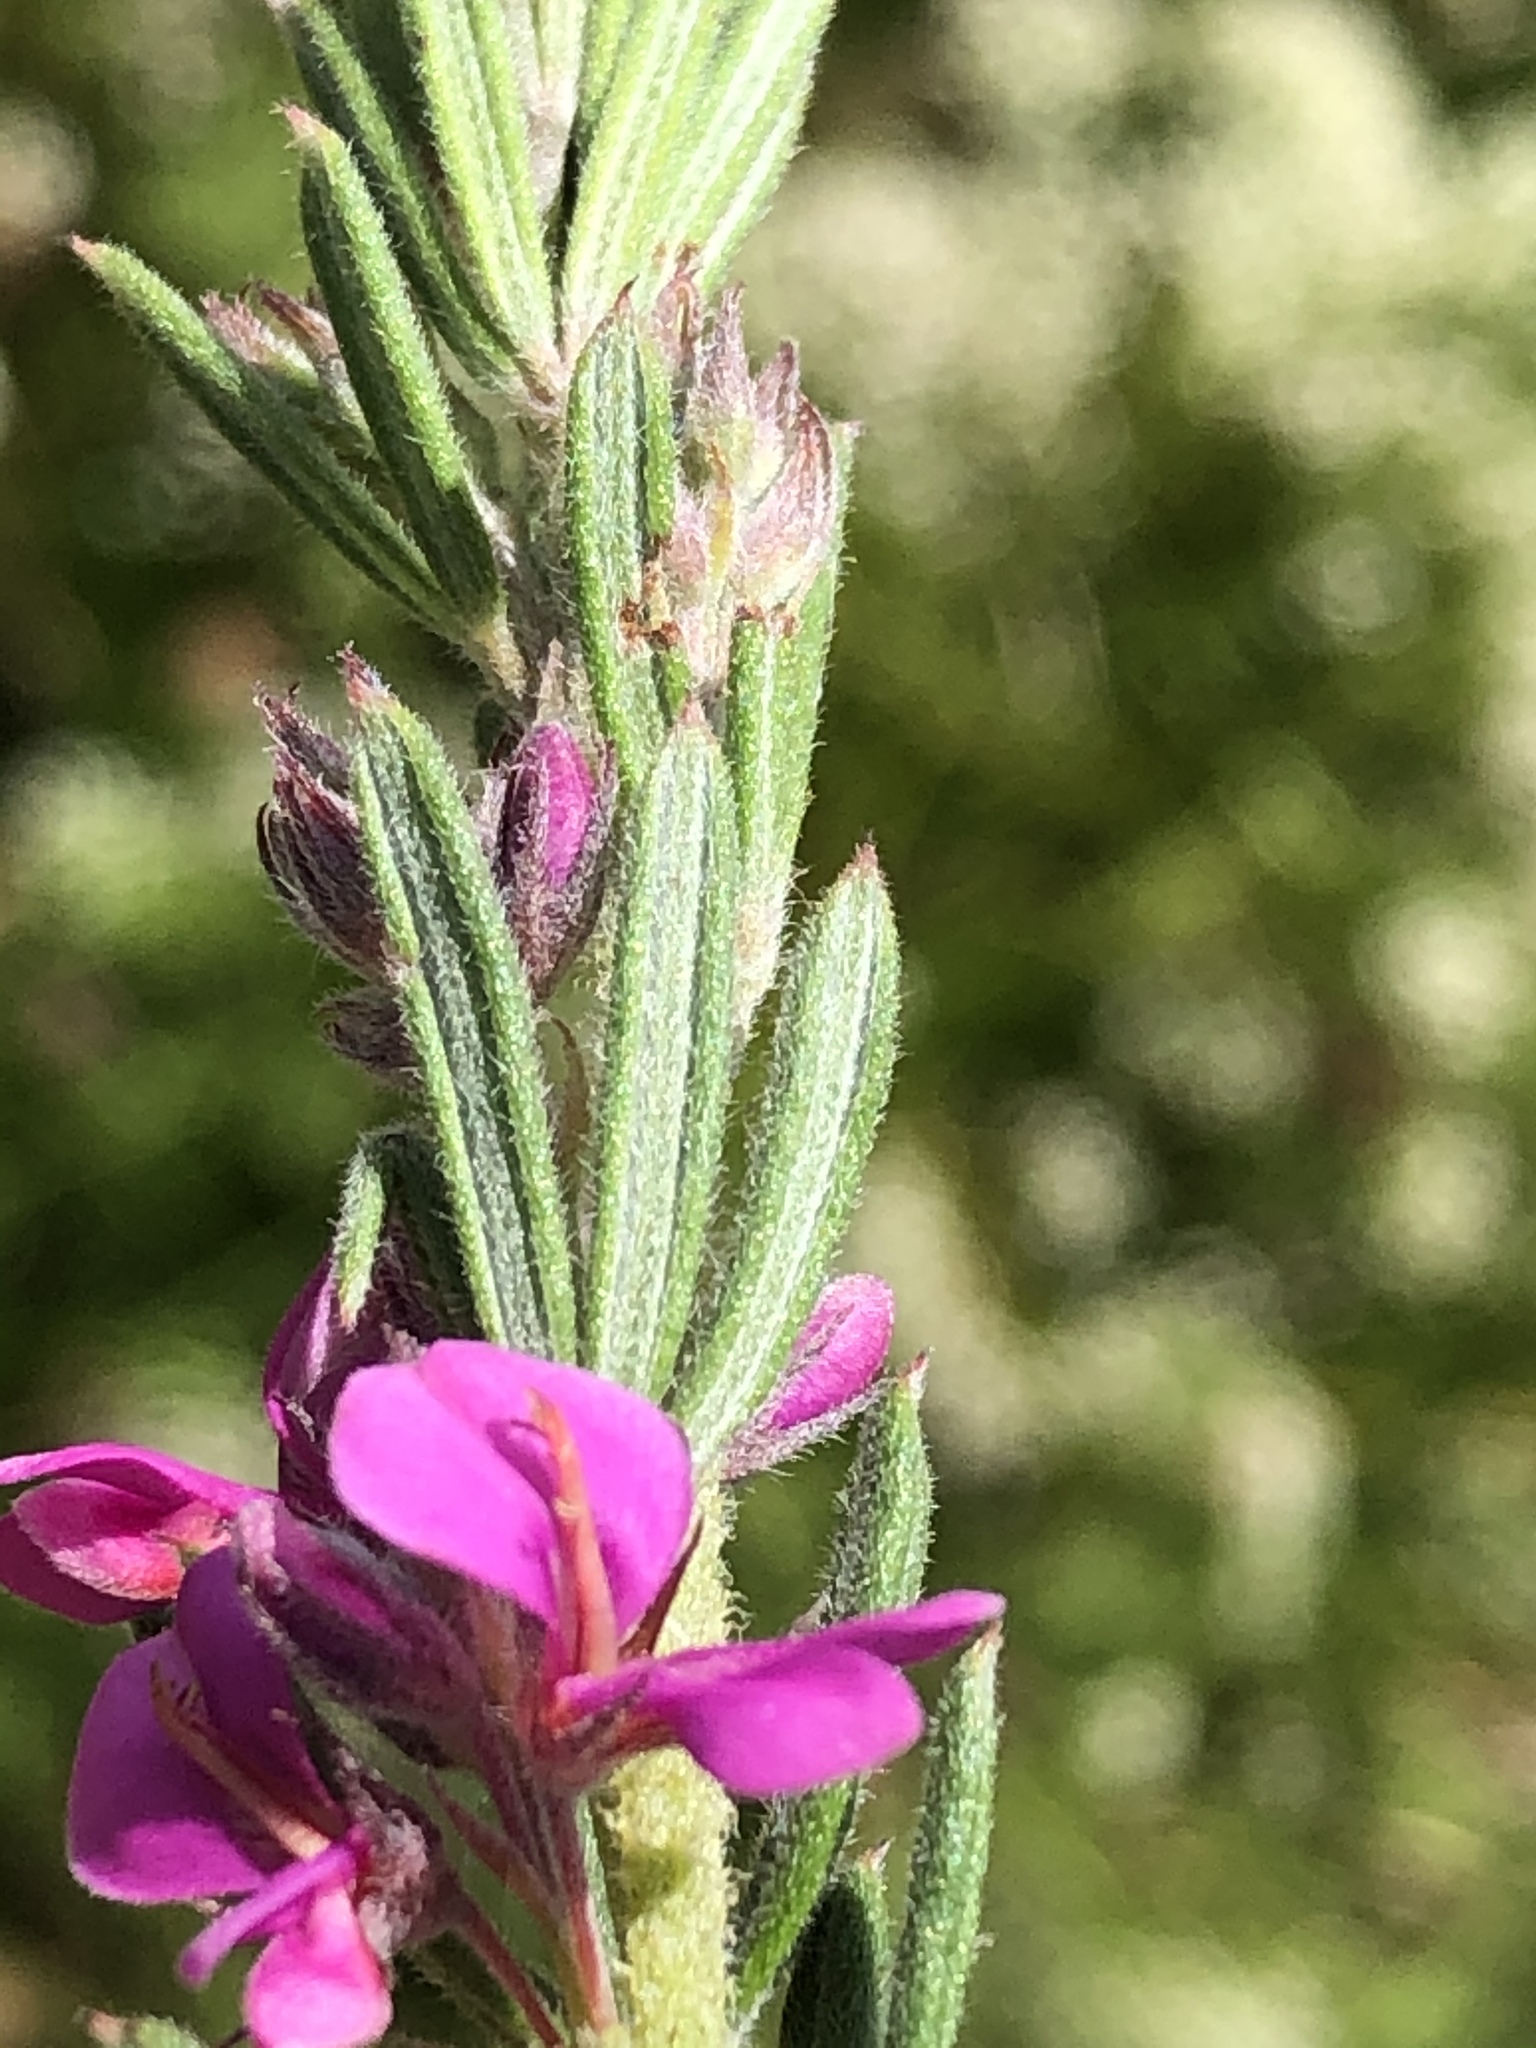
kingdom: Plantae
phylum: Tracheophyta
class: Magnoliopsida
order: Fabales
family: Fabaceae
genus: Indigofera
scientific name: Indigofera rhodantha
